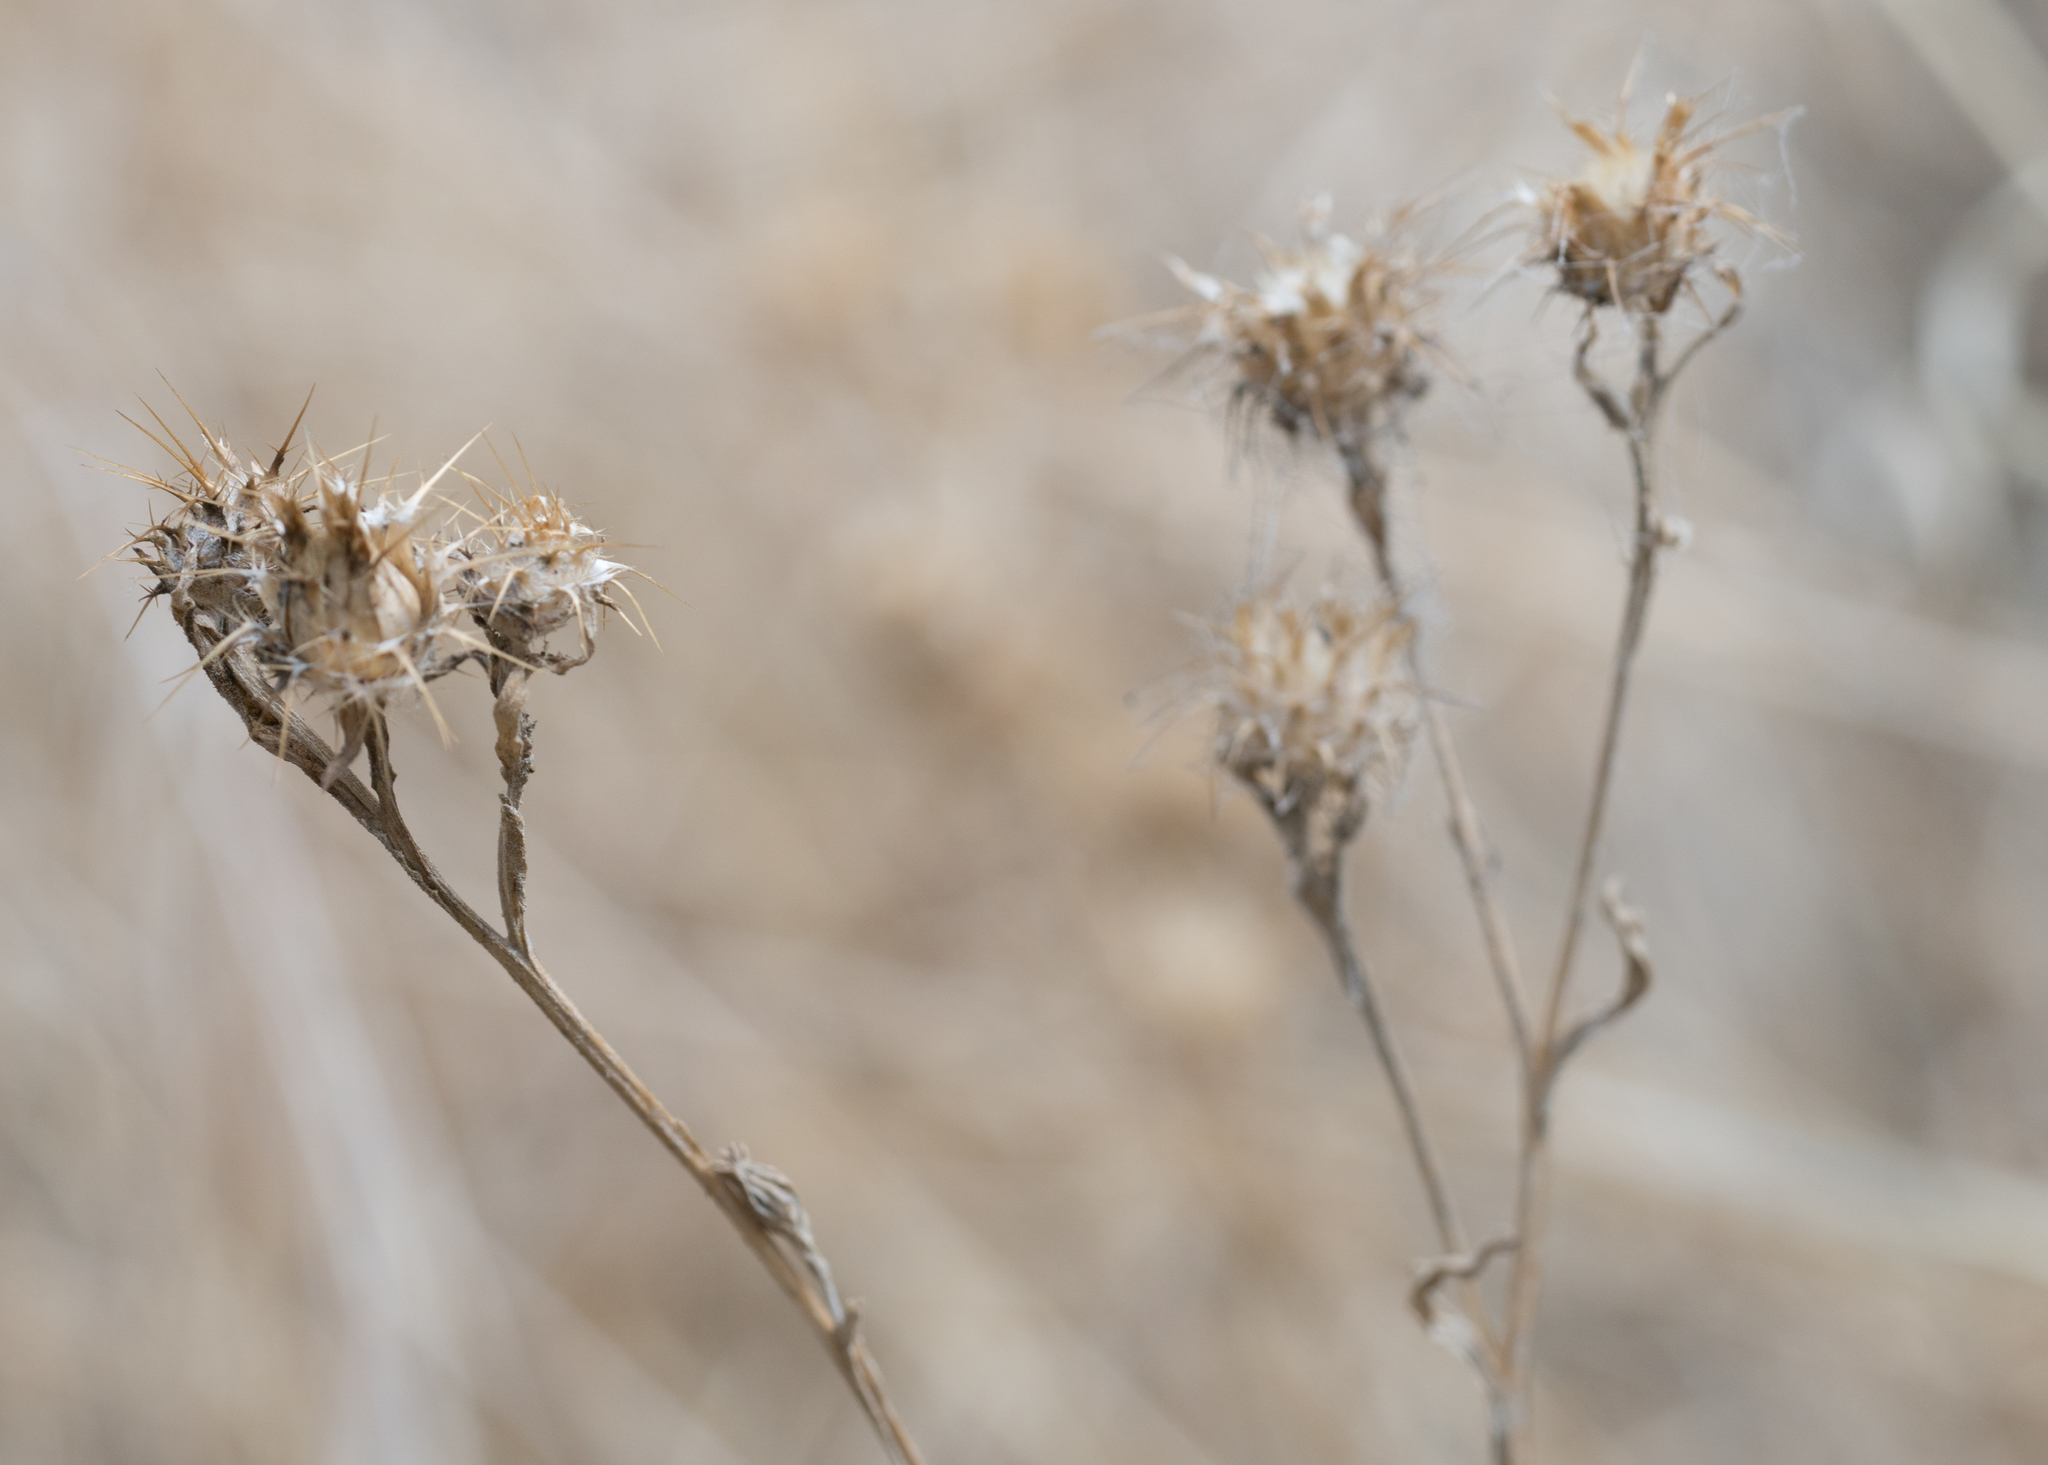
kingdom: Plantae
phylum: Tracheophyta
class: Magnoliopsida
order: Asterales
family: Asteraceae
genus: Centaurea
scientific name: Centaurea melitensis
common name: Maltese star-thistle
